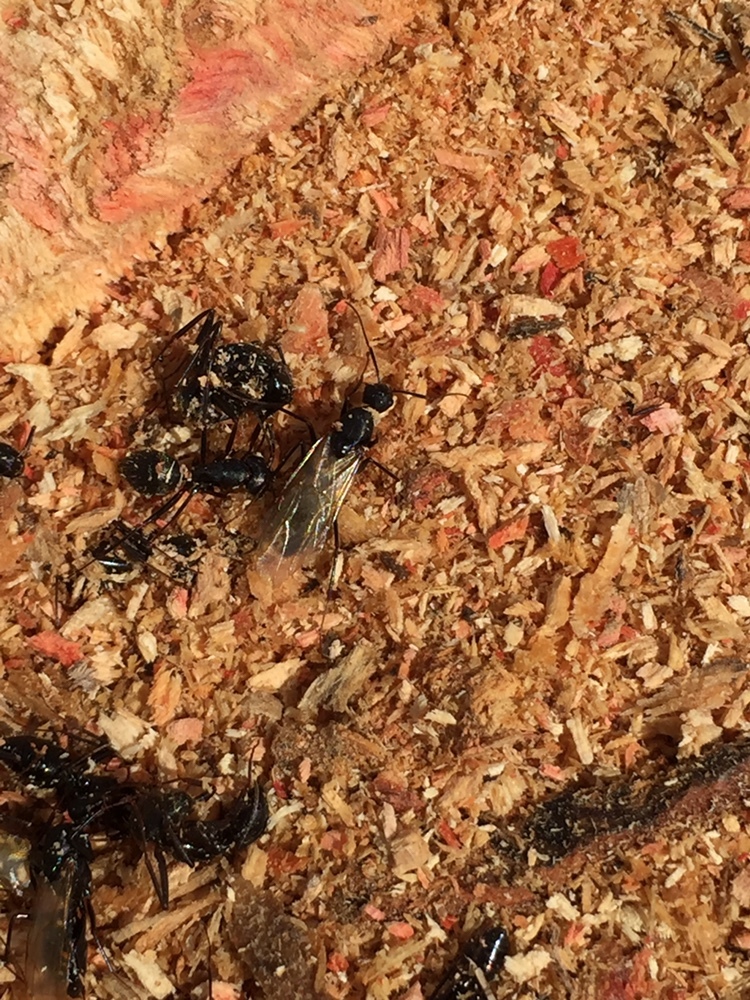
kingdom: Animalia
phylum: Arthropoda
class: Insecta
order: Hymenoptera
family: Formicidae
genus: Camponotus
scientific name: Camponotus pennsylvanicus
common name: Black carpenter ant
